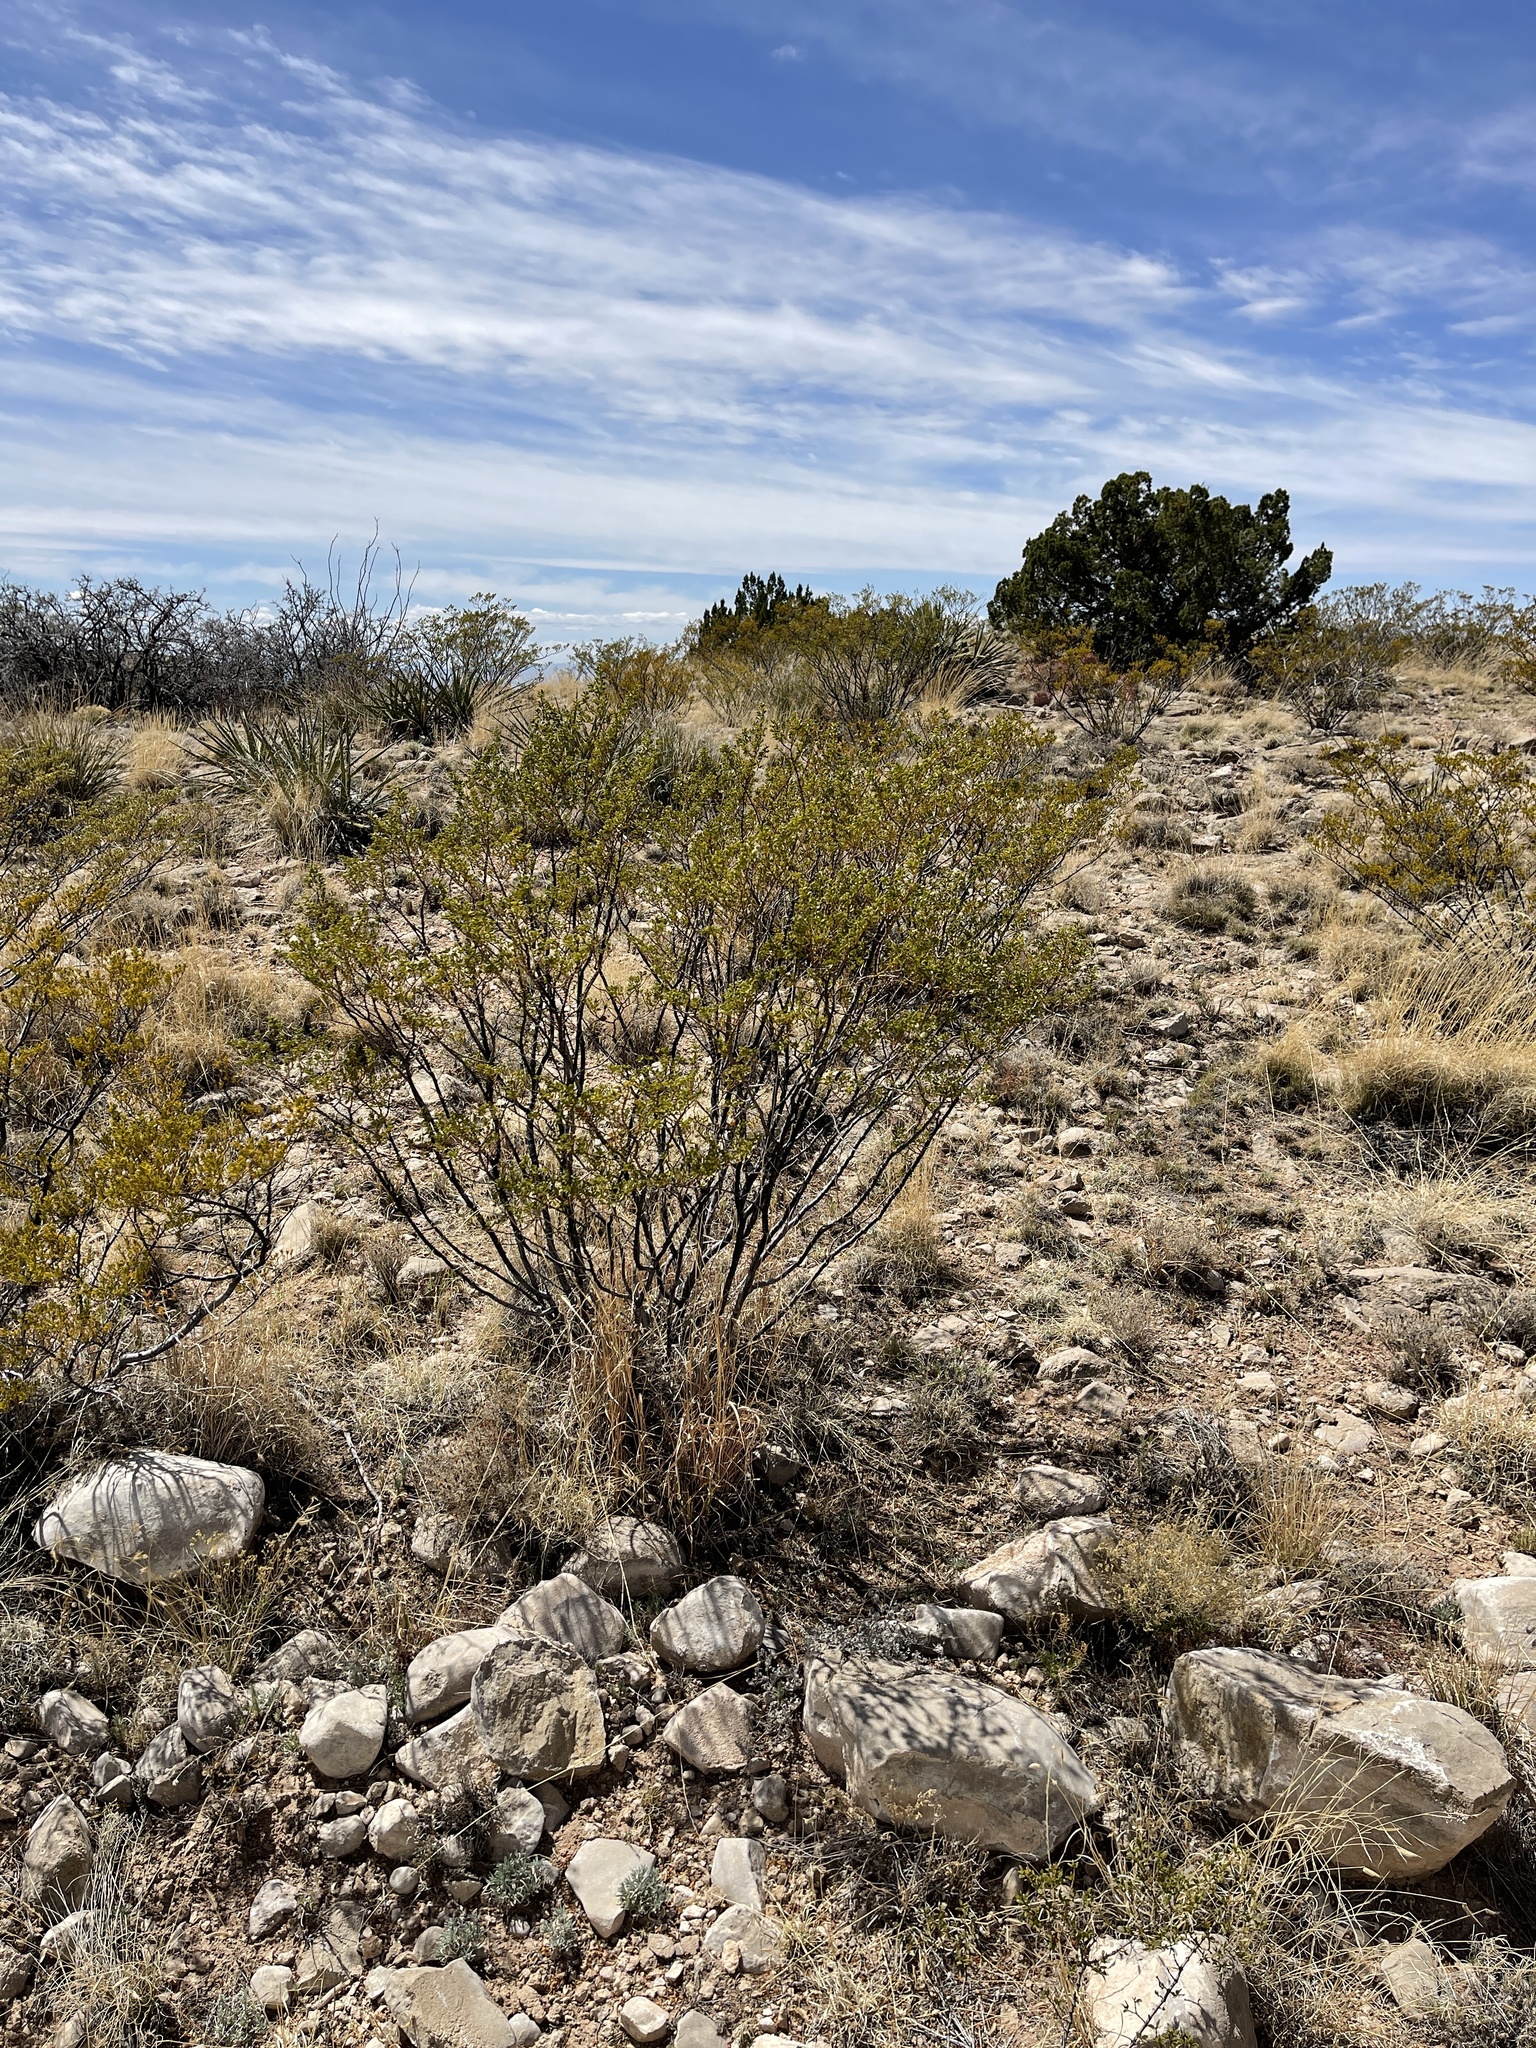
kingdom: Plantae
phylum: Tracheophyta
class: Magnoliopsida
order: Zygophyllales
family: Zygophyllaceae
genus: Larrea
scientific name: Larrea tridentata
